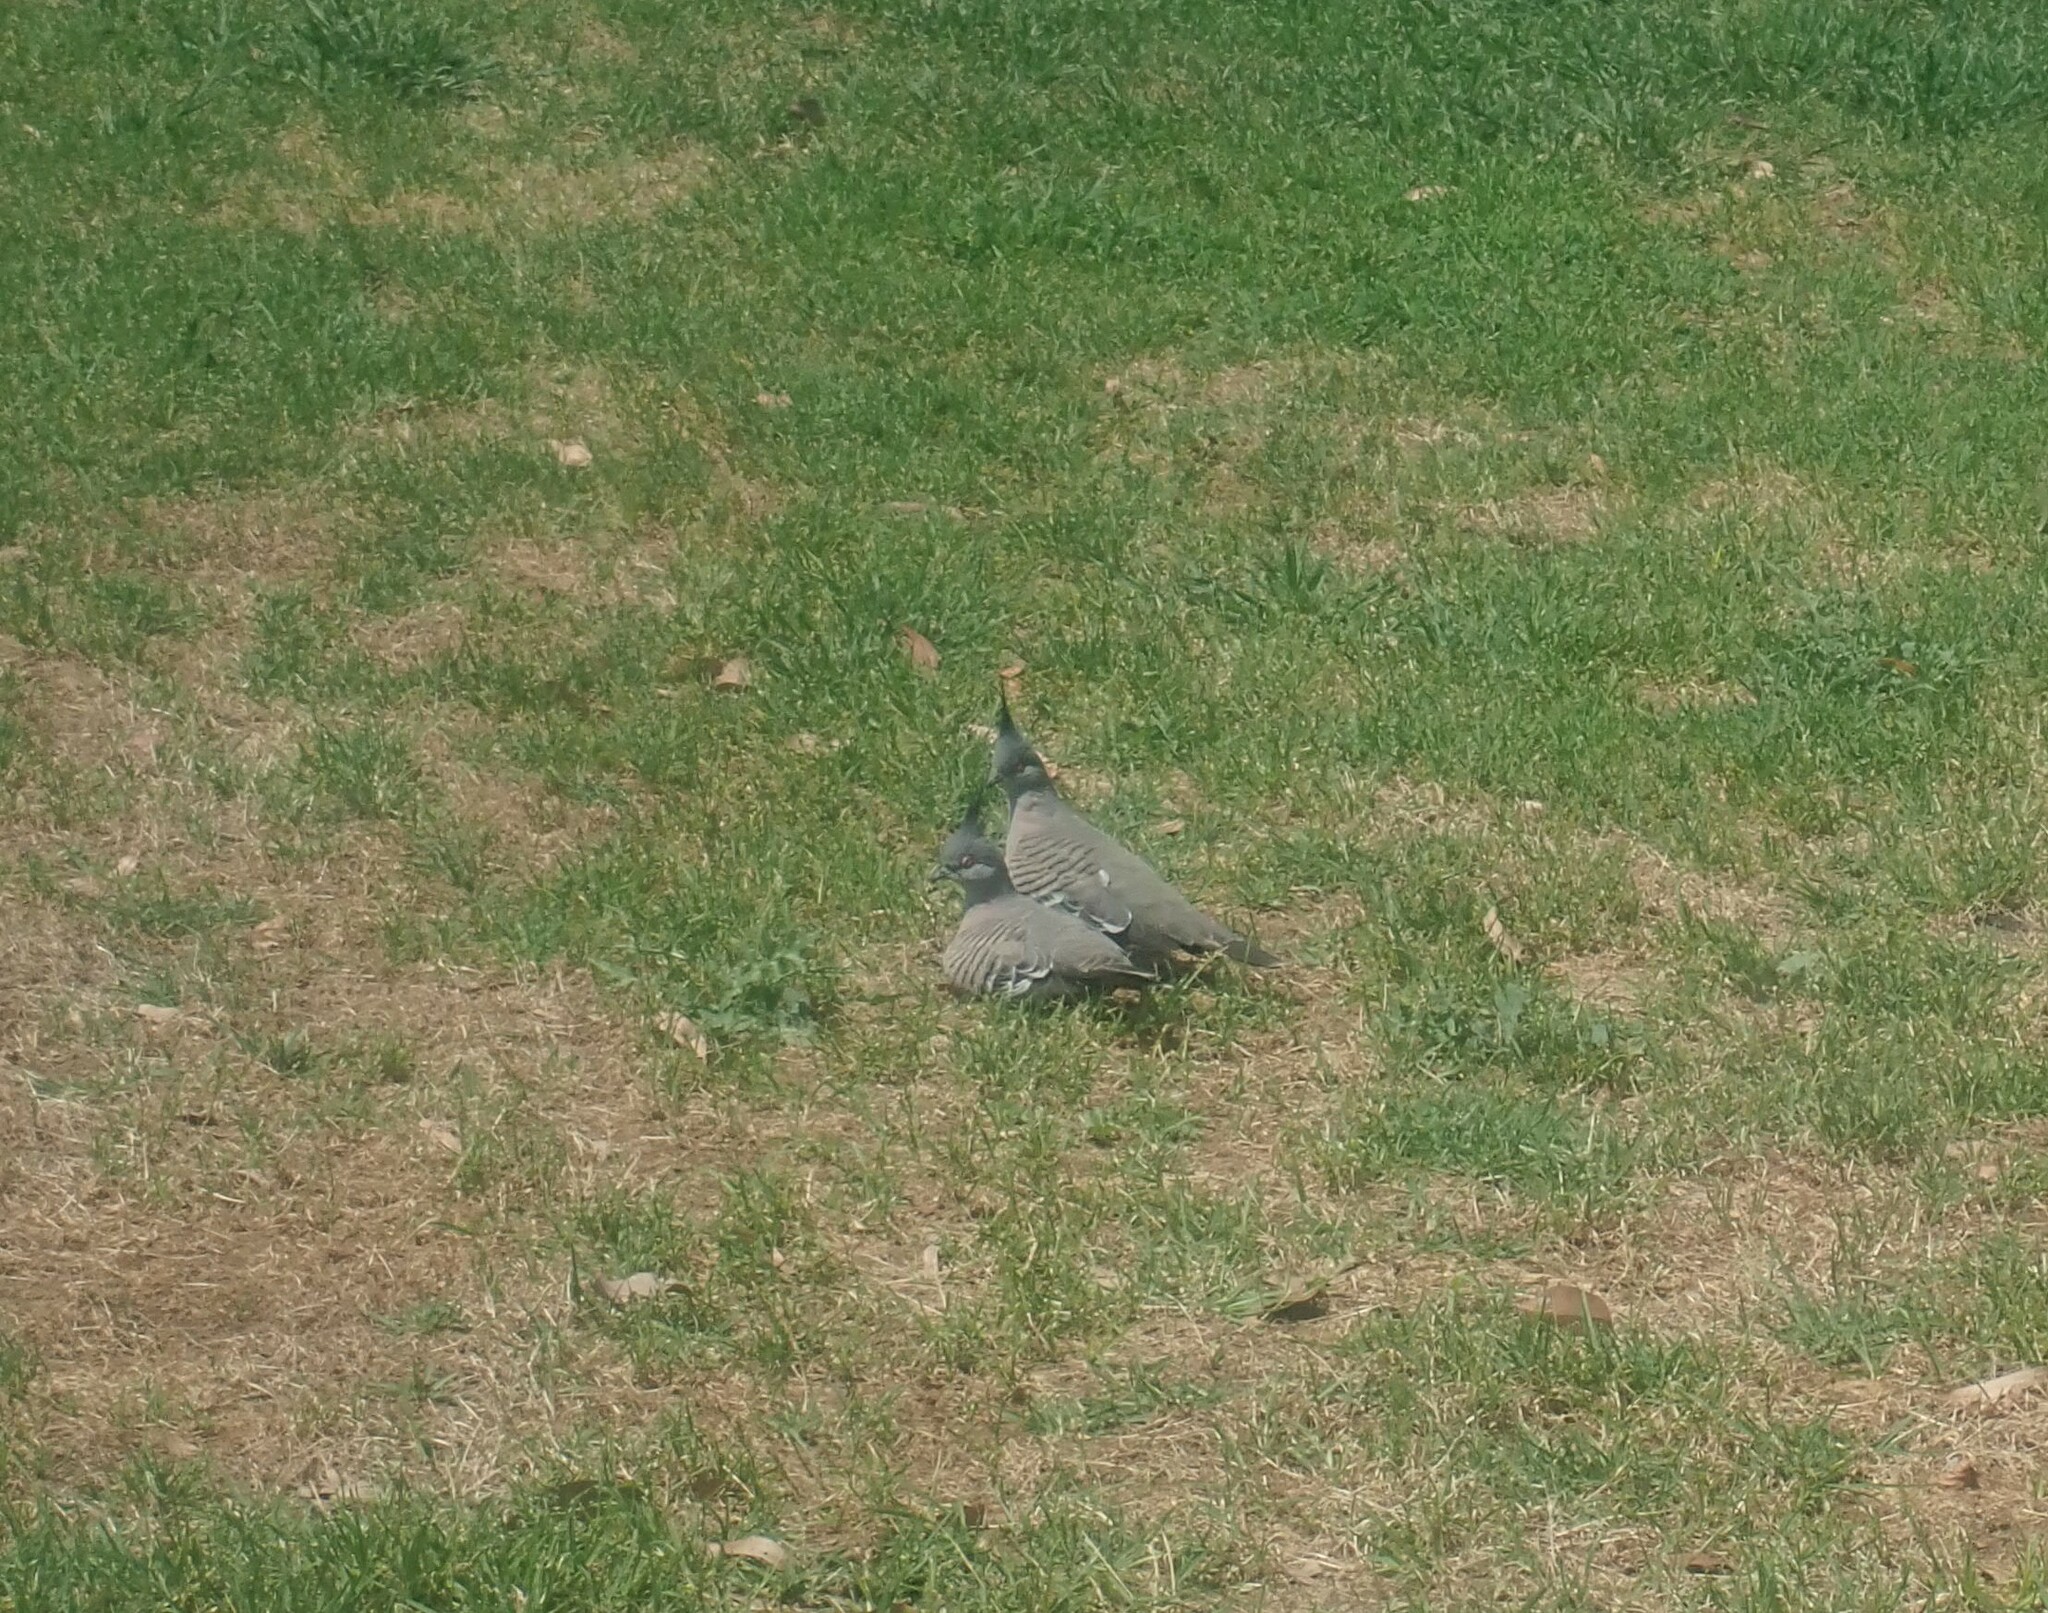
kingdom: Animalia
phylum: Chordata
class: Aves
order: Columbiformes
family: Columbidae
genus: Ocyphaps
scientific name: Ocyphaps lophotes
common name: Crested pigeon
